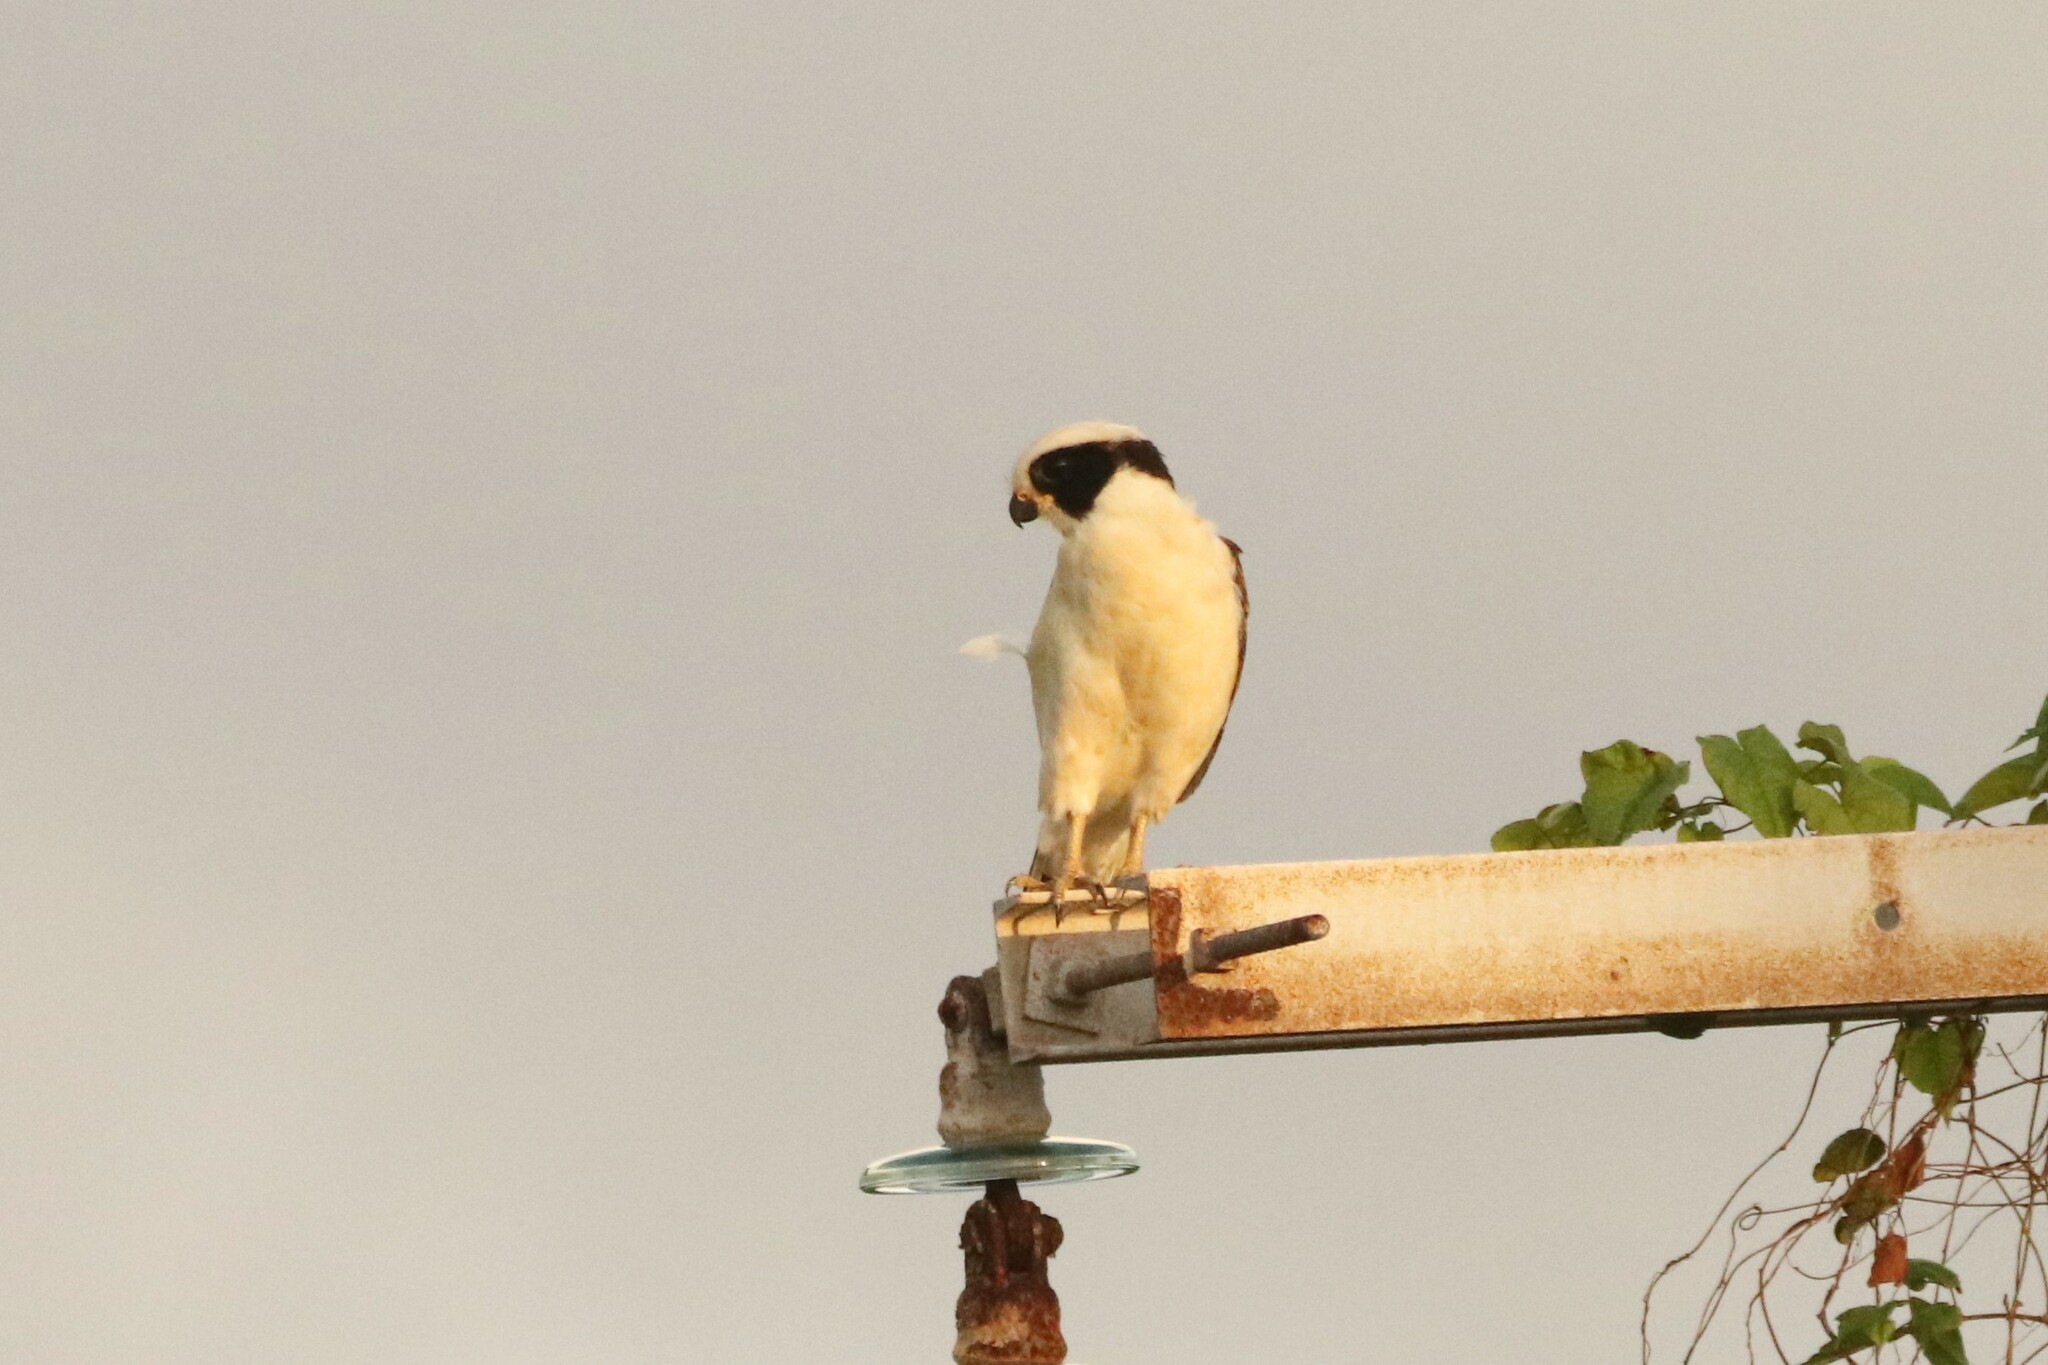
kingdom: Animalia
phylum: Chordata
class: Aves
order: Falconiformes
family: Falconidae
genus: Herpetotheres
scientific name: Herpetotheres cachinnans
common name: Laughing falcon
